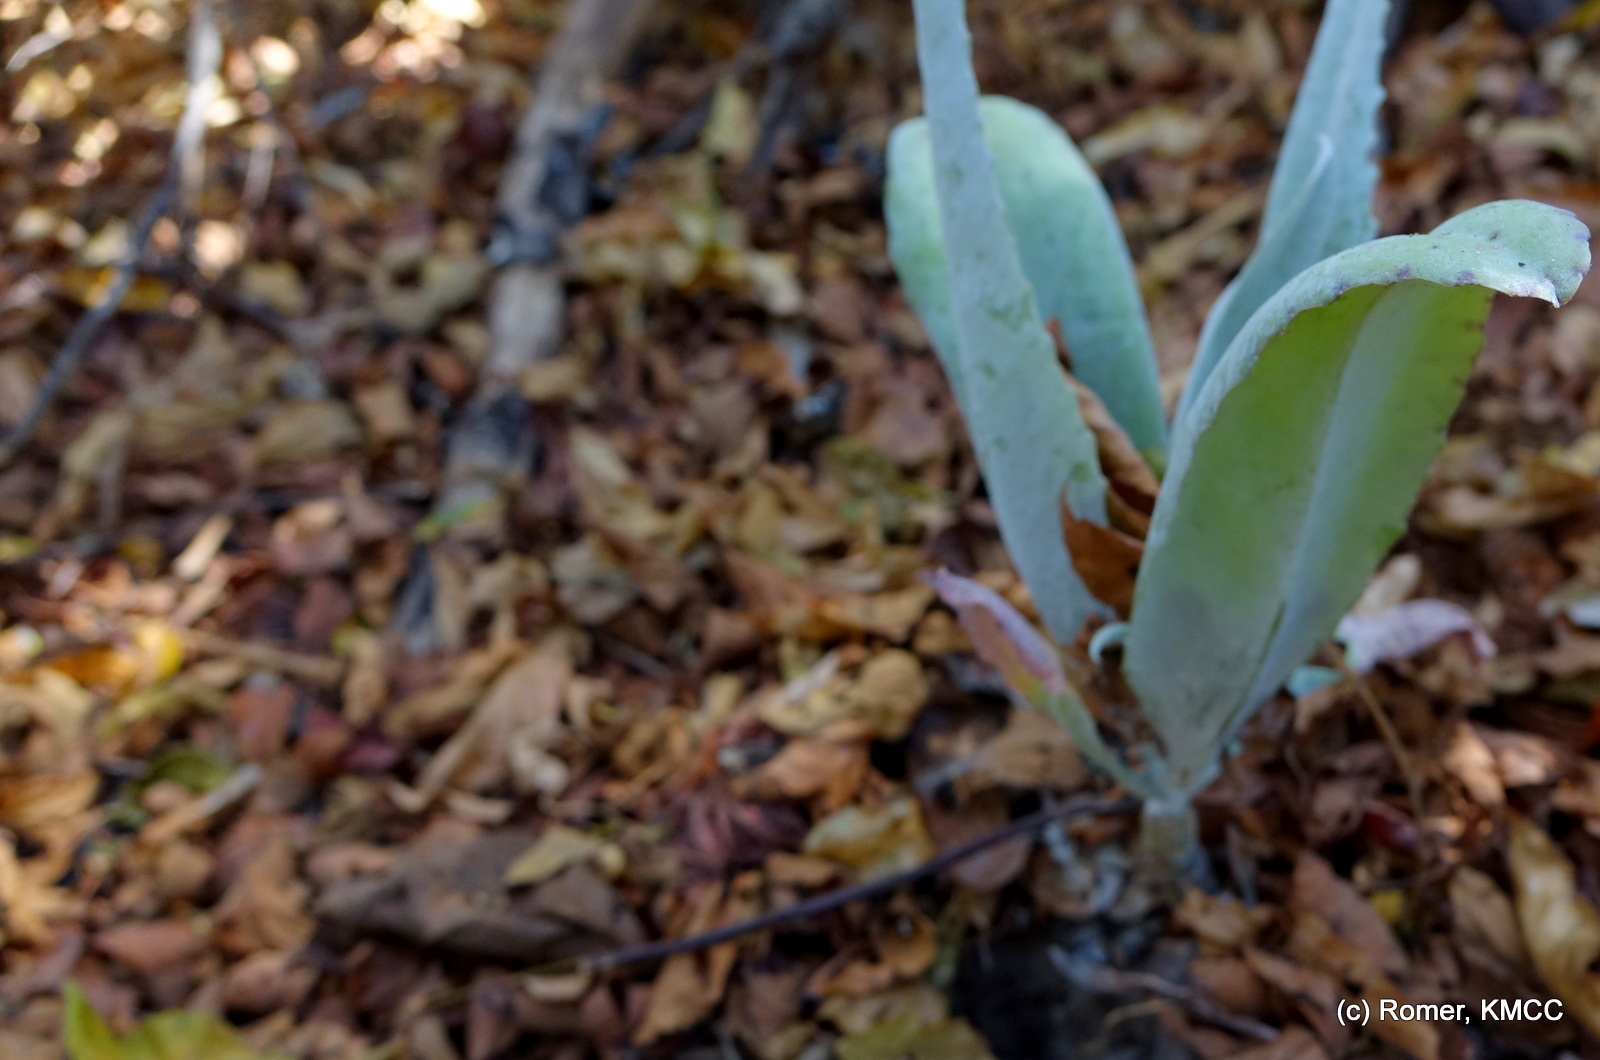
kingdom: Plantae
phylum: Tracheophyta
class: Magnoliopsida
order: Saxifragales
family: Crassulaceae
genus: Kalanchoe
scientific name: Kalanchoe gastonis-bonnieri
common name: Palm beachbells
